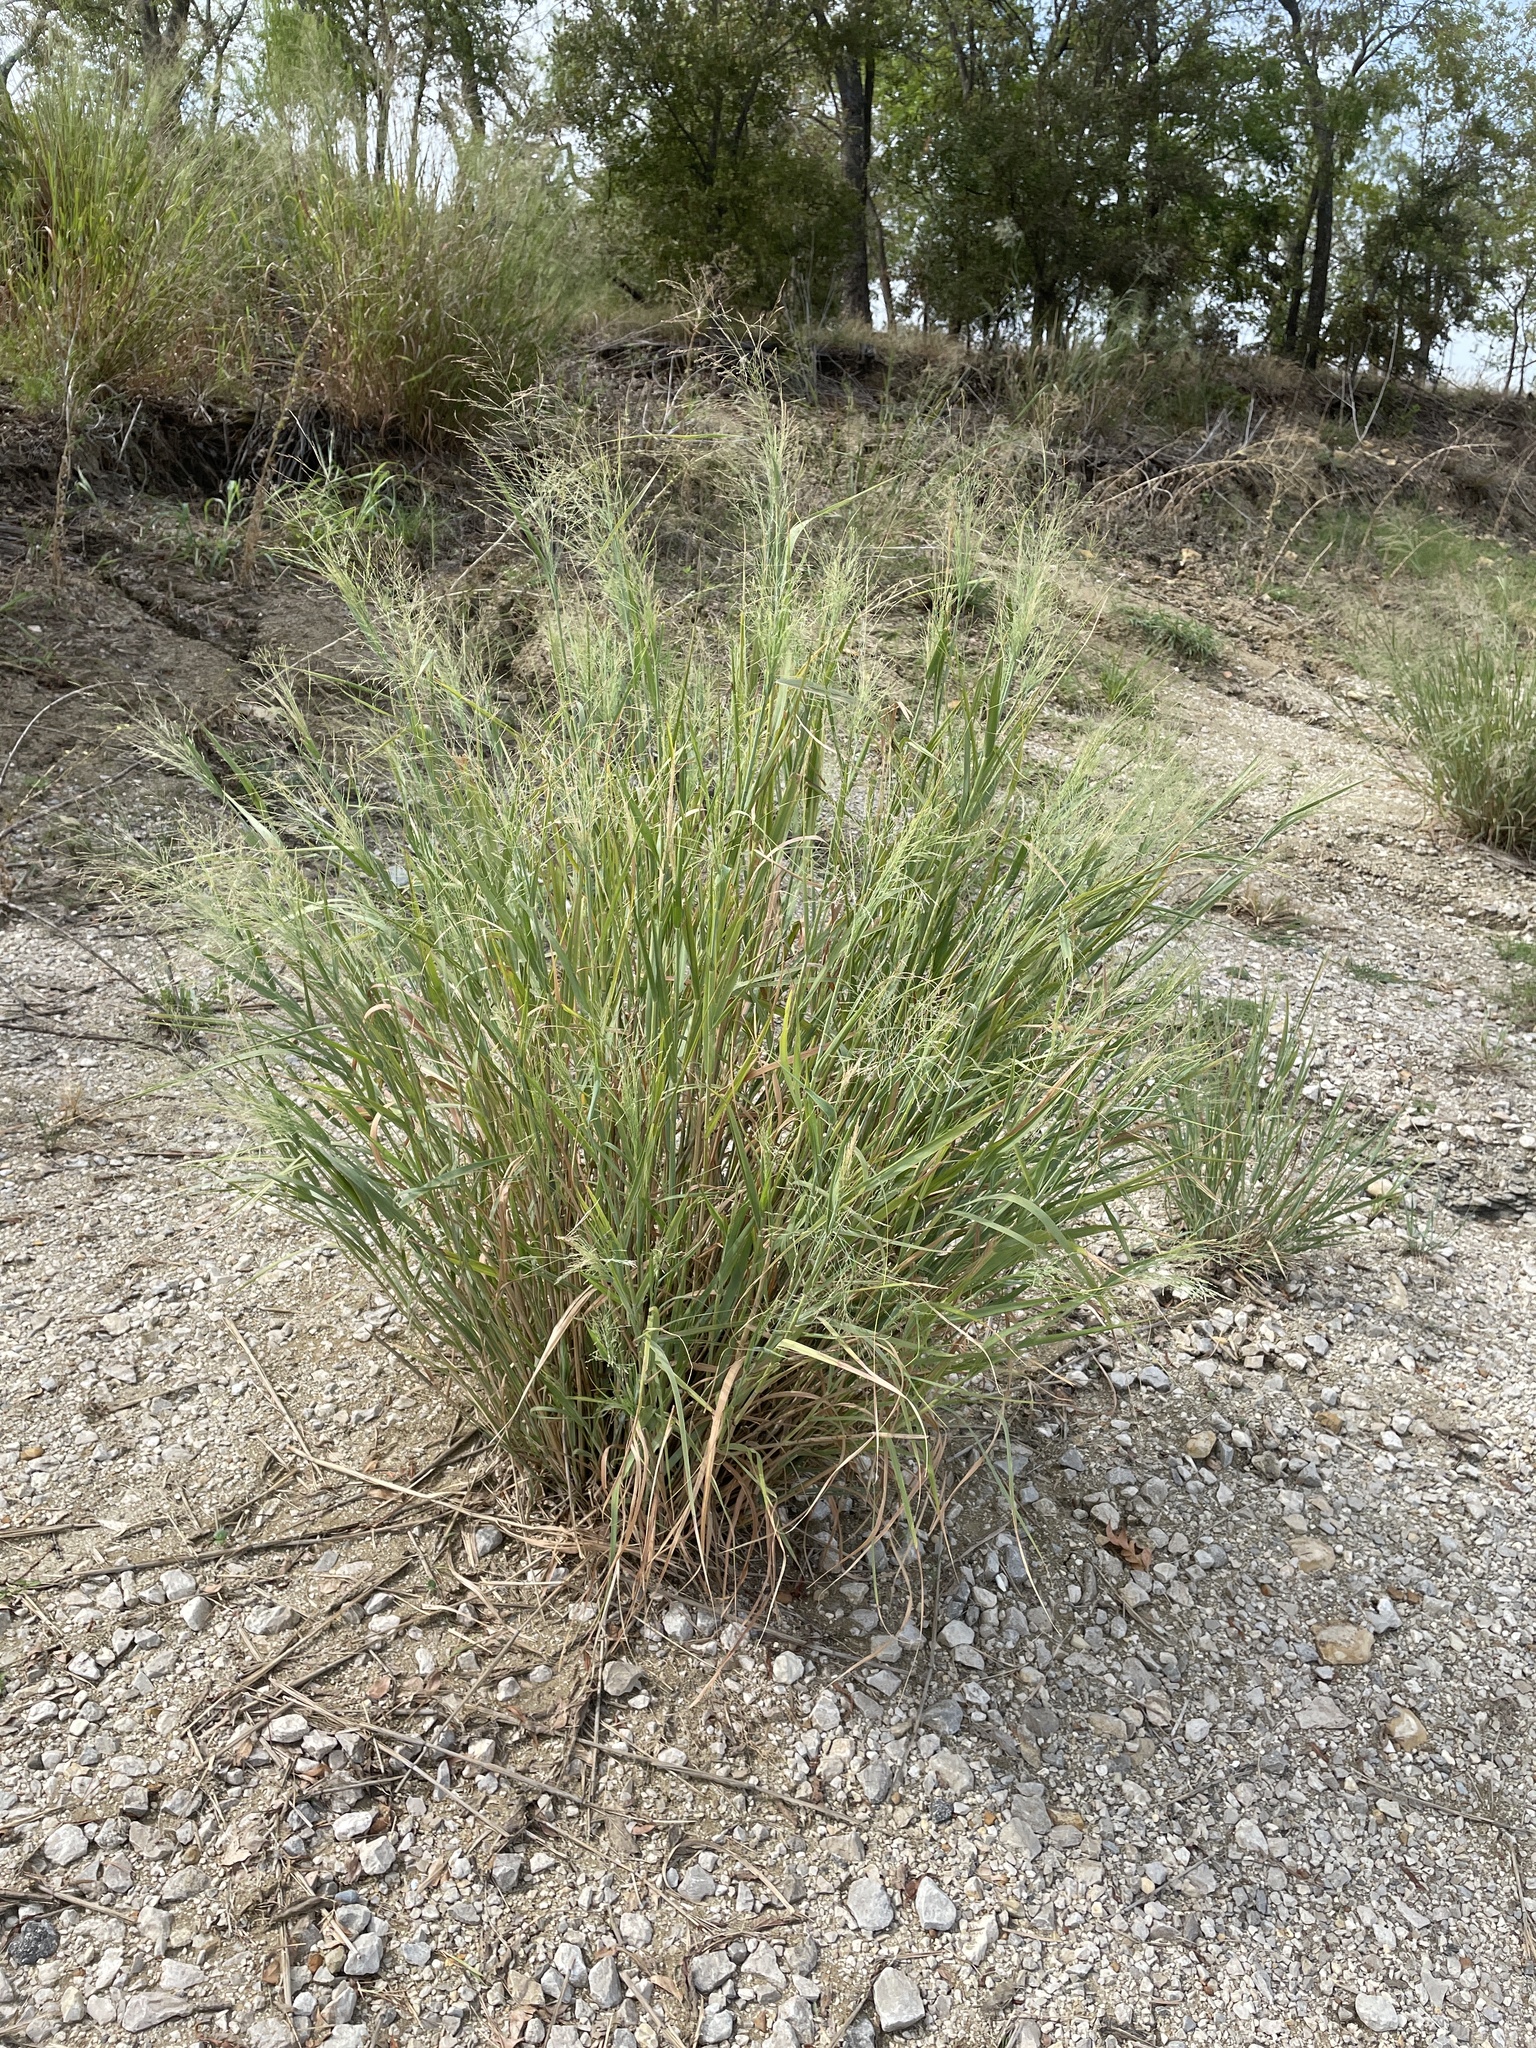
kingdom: Plantae
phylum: Tracheophyta
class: Liliopsida
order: Poales
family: Poaceae
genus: Panicum
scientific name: Panicum virgatum
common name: Switchgrass
